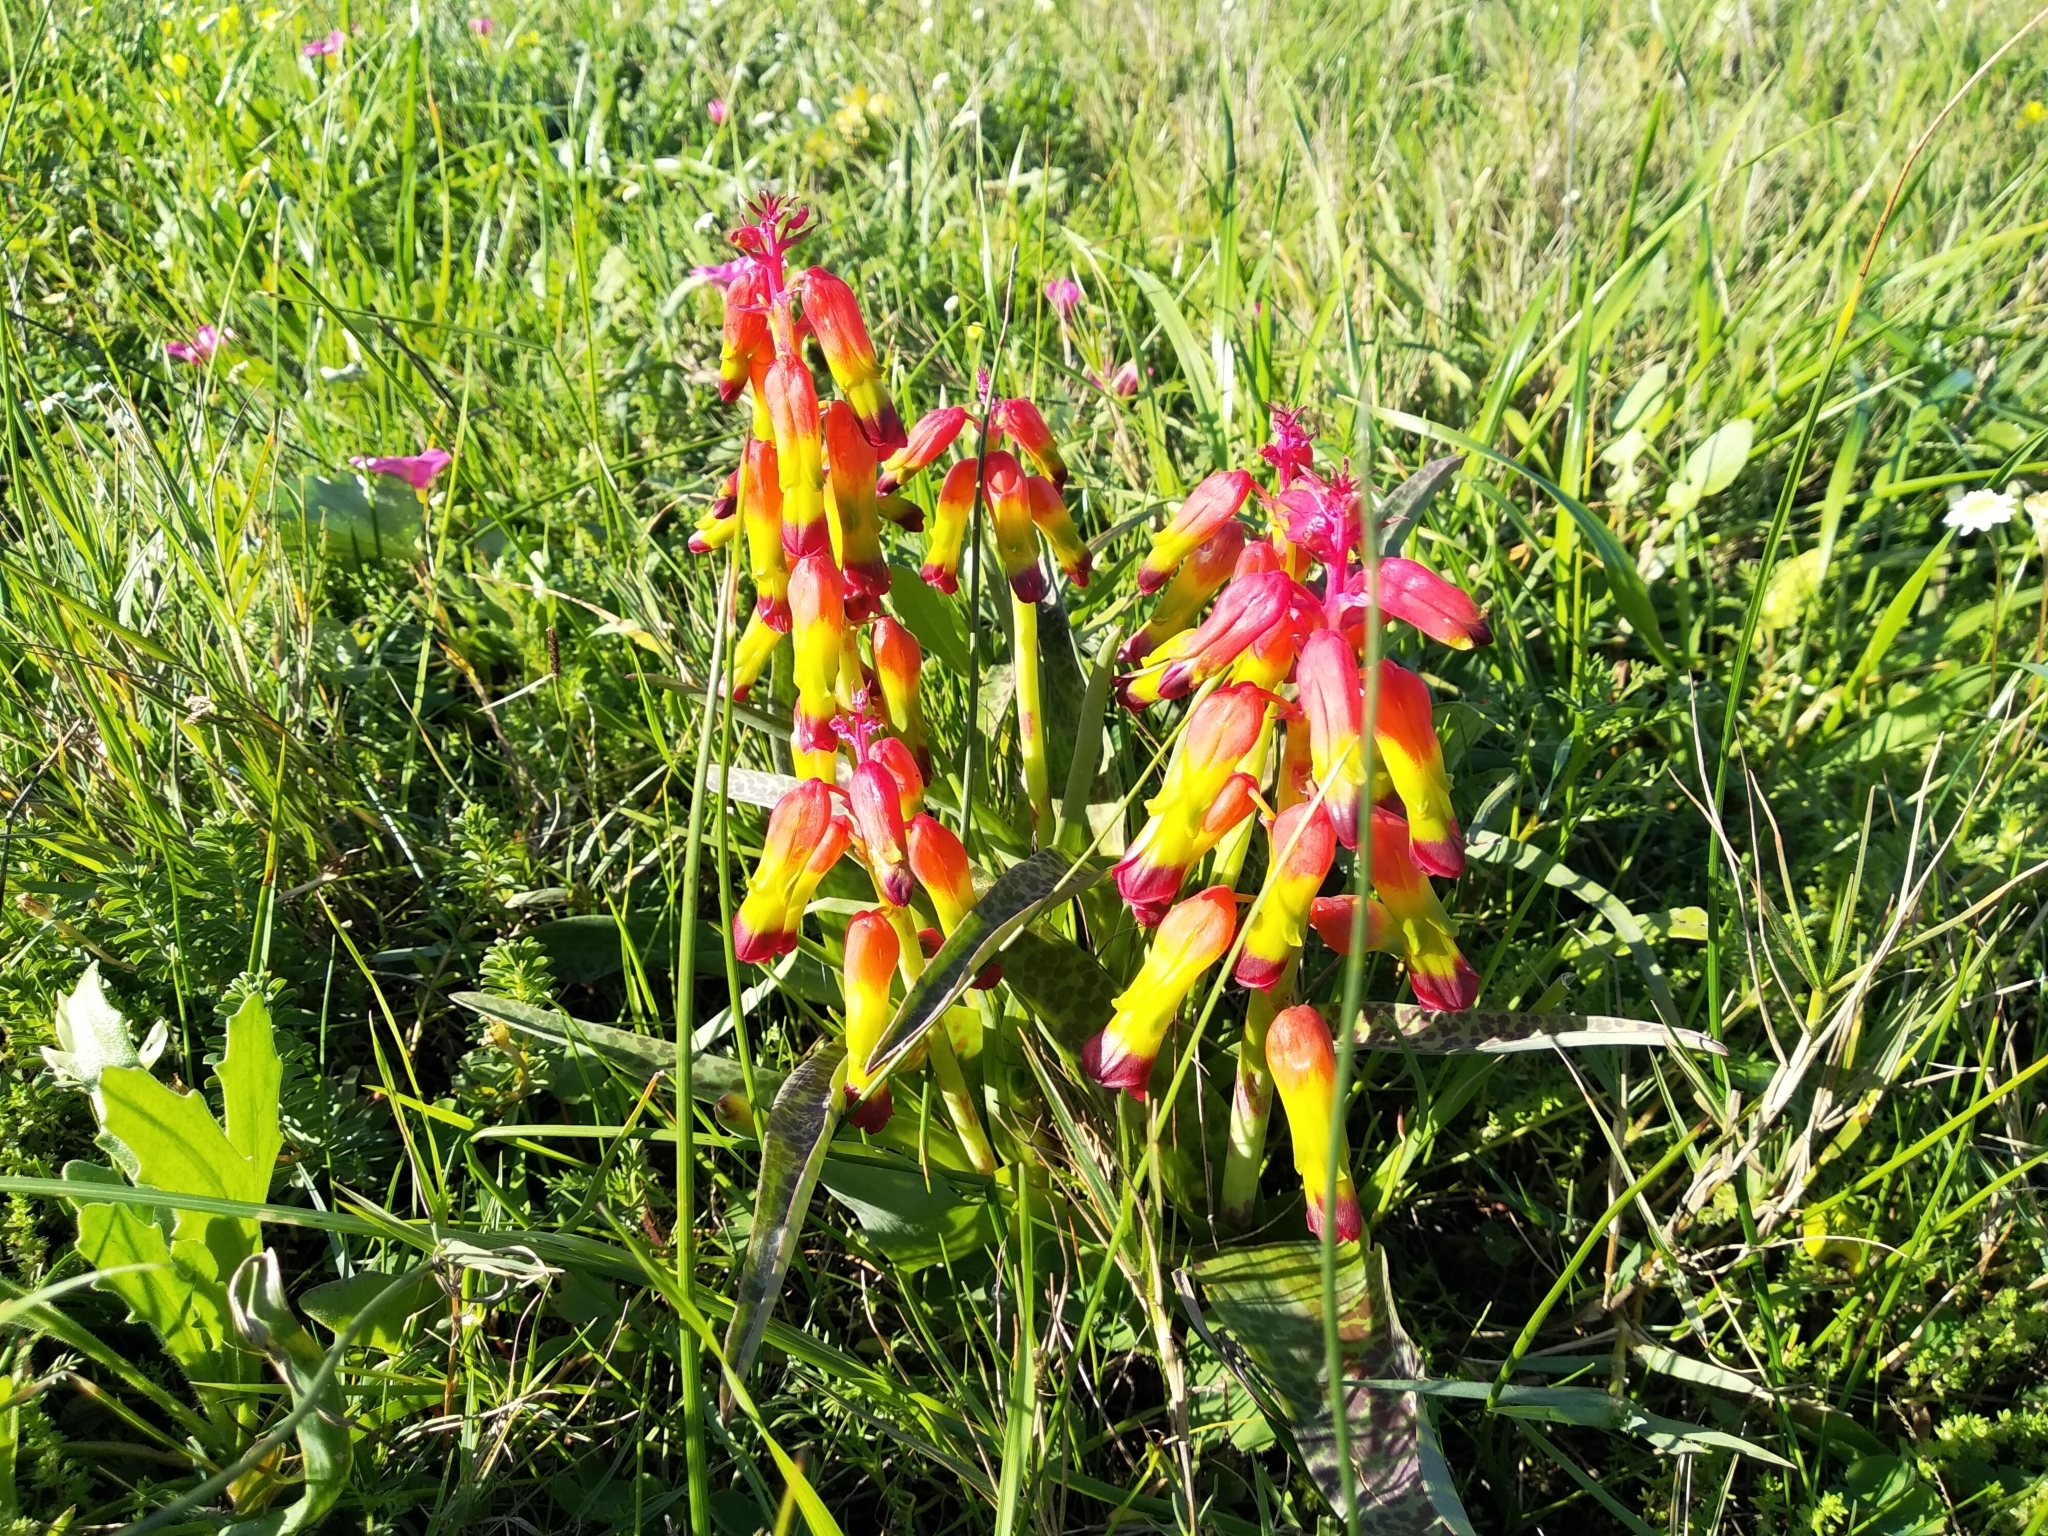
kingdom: Plantae
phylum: Tracheophyta
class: Liliopsida
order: Asparagales
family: Asparagaceae
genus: Lachenalia
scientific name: Lachenalia quadricolor
